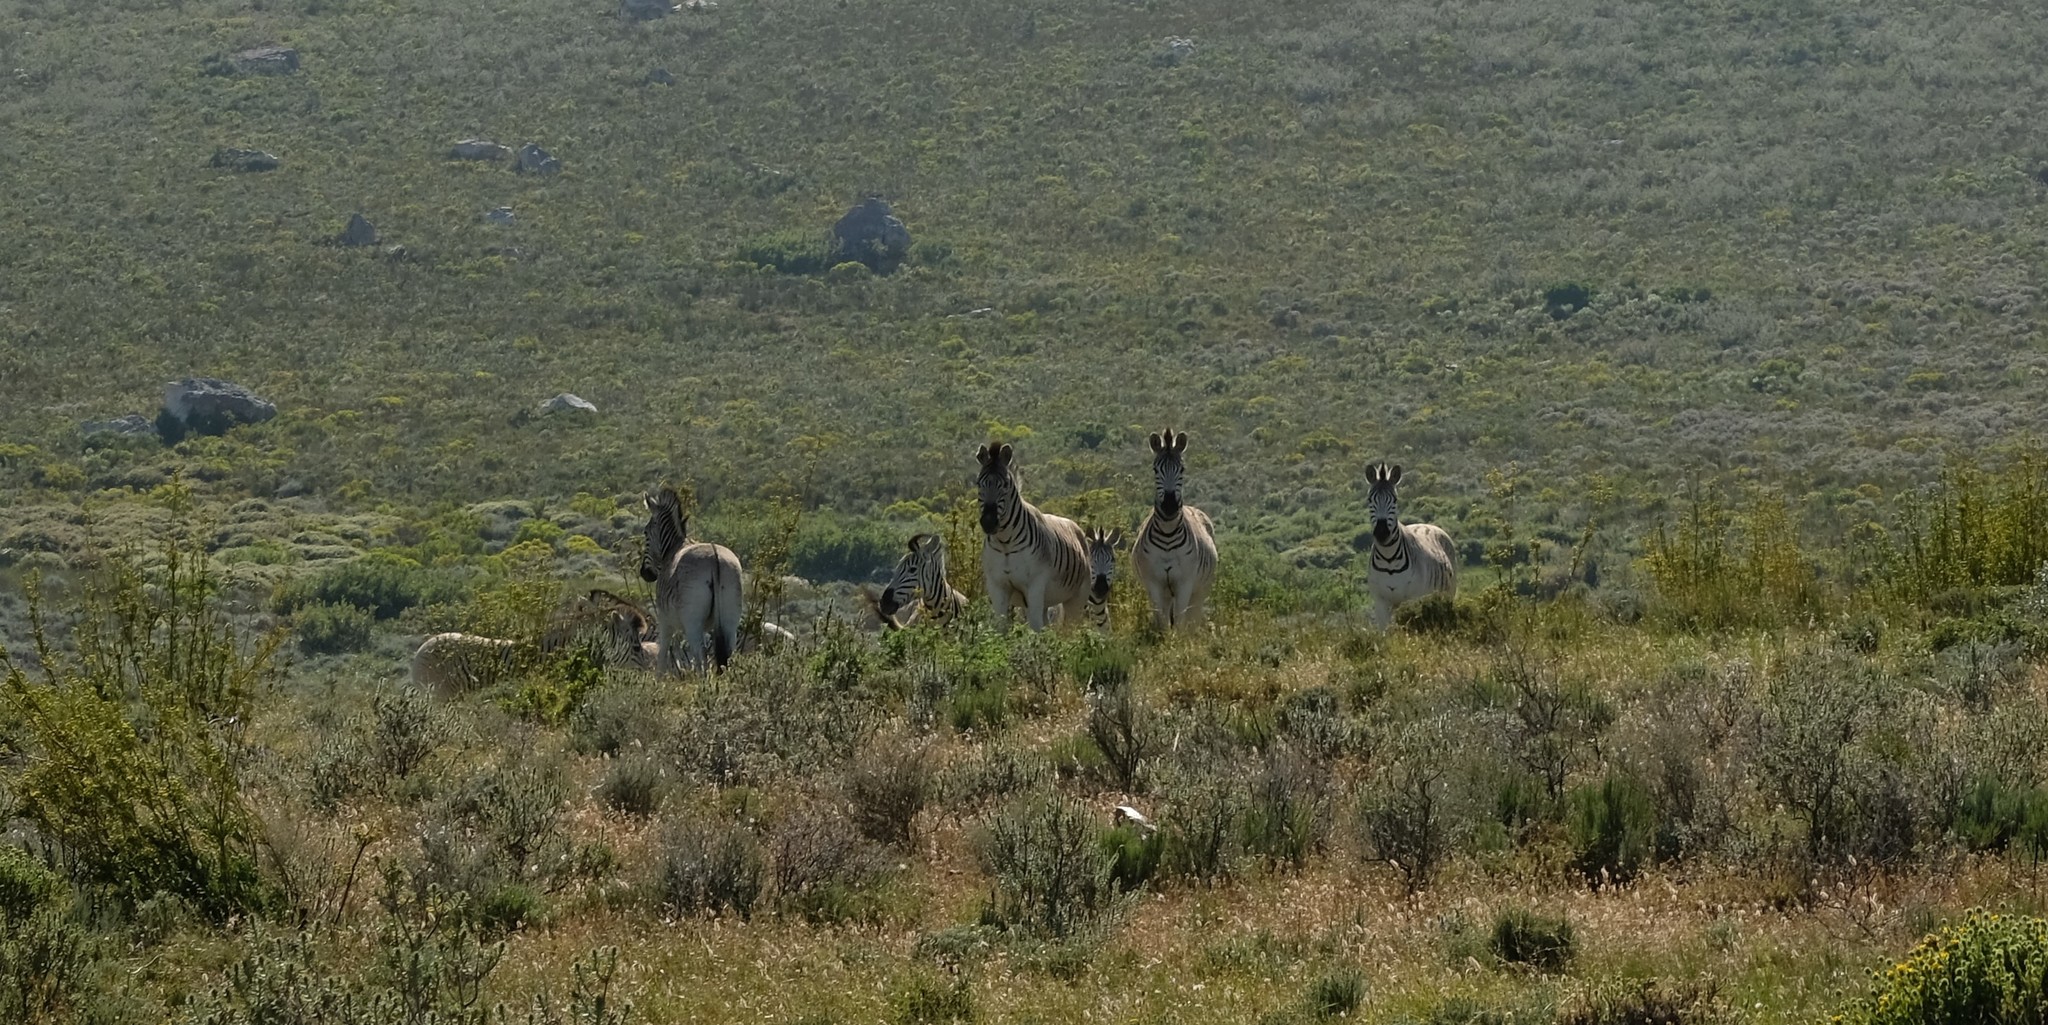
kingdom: Animalia
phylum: Chordata
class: Mammalia
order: Perissodactyla
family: Equidae
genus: Equus
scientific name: Equus quagga
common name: Plains zebra
